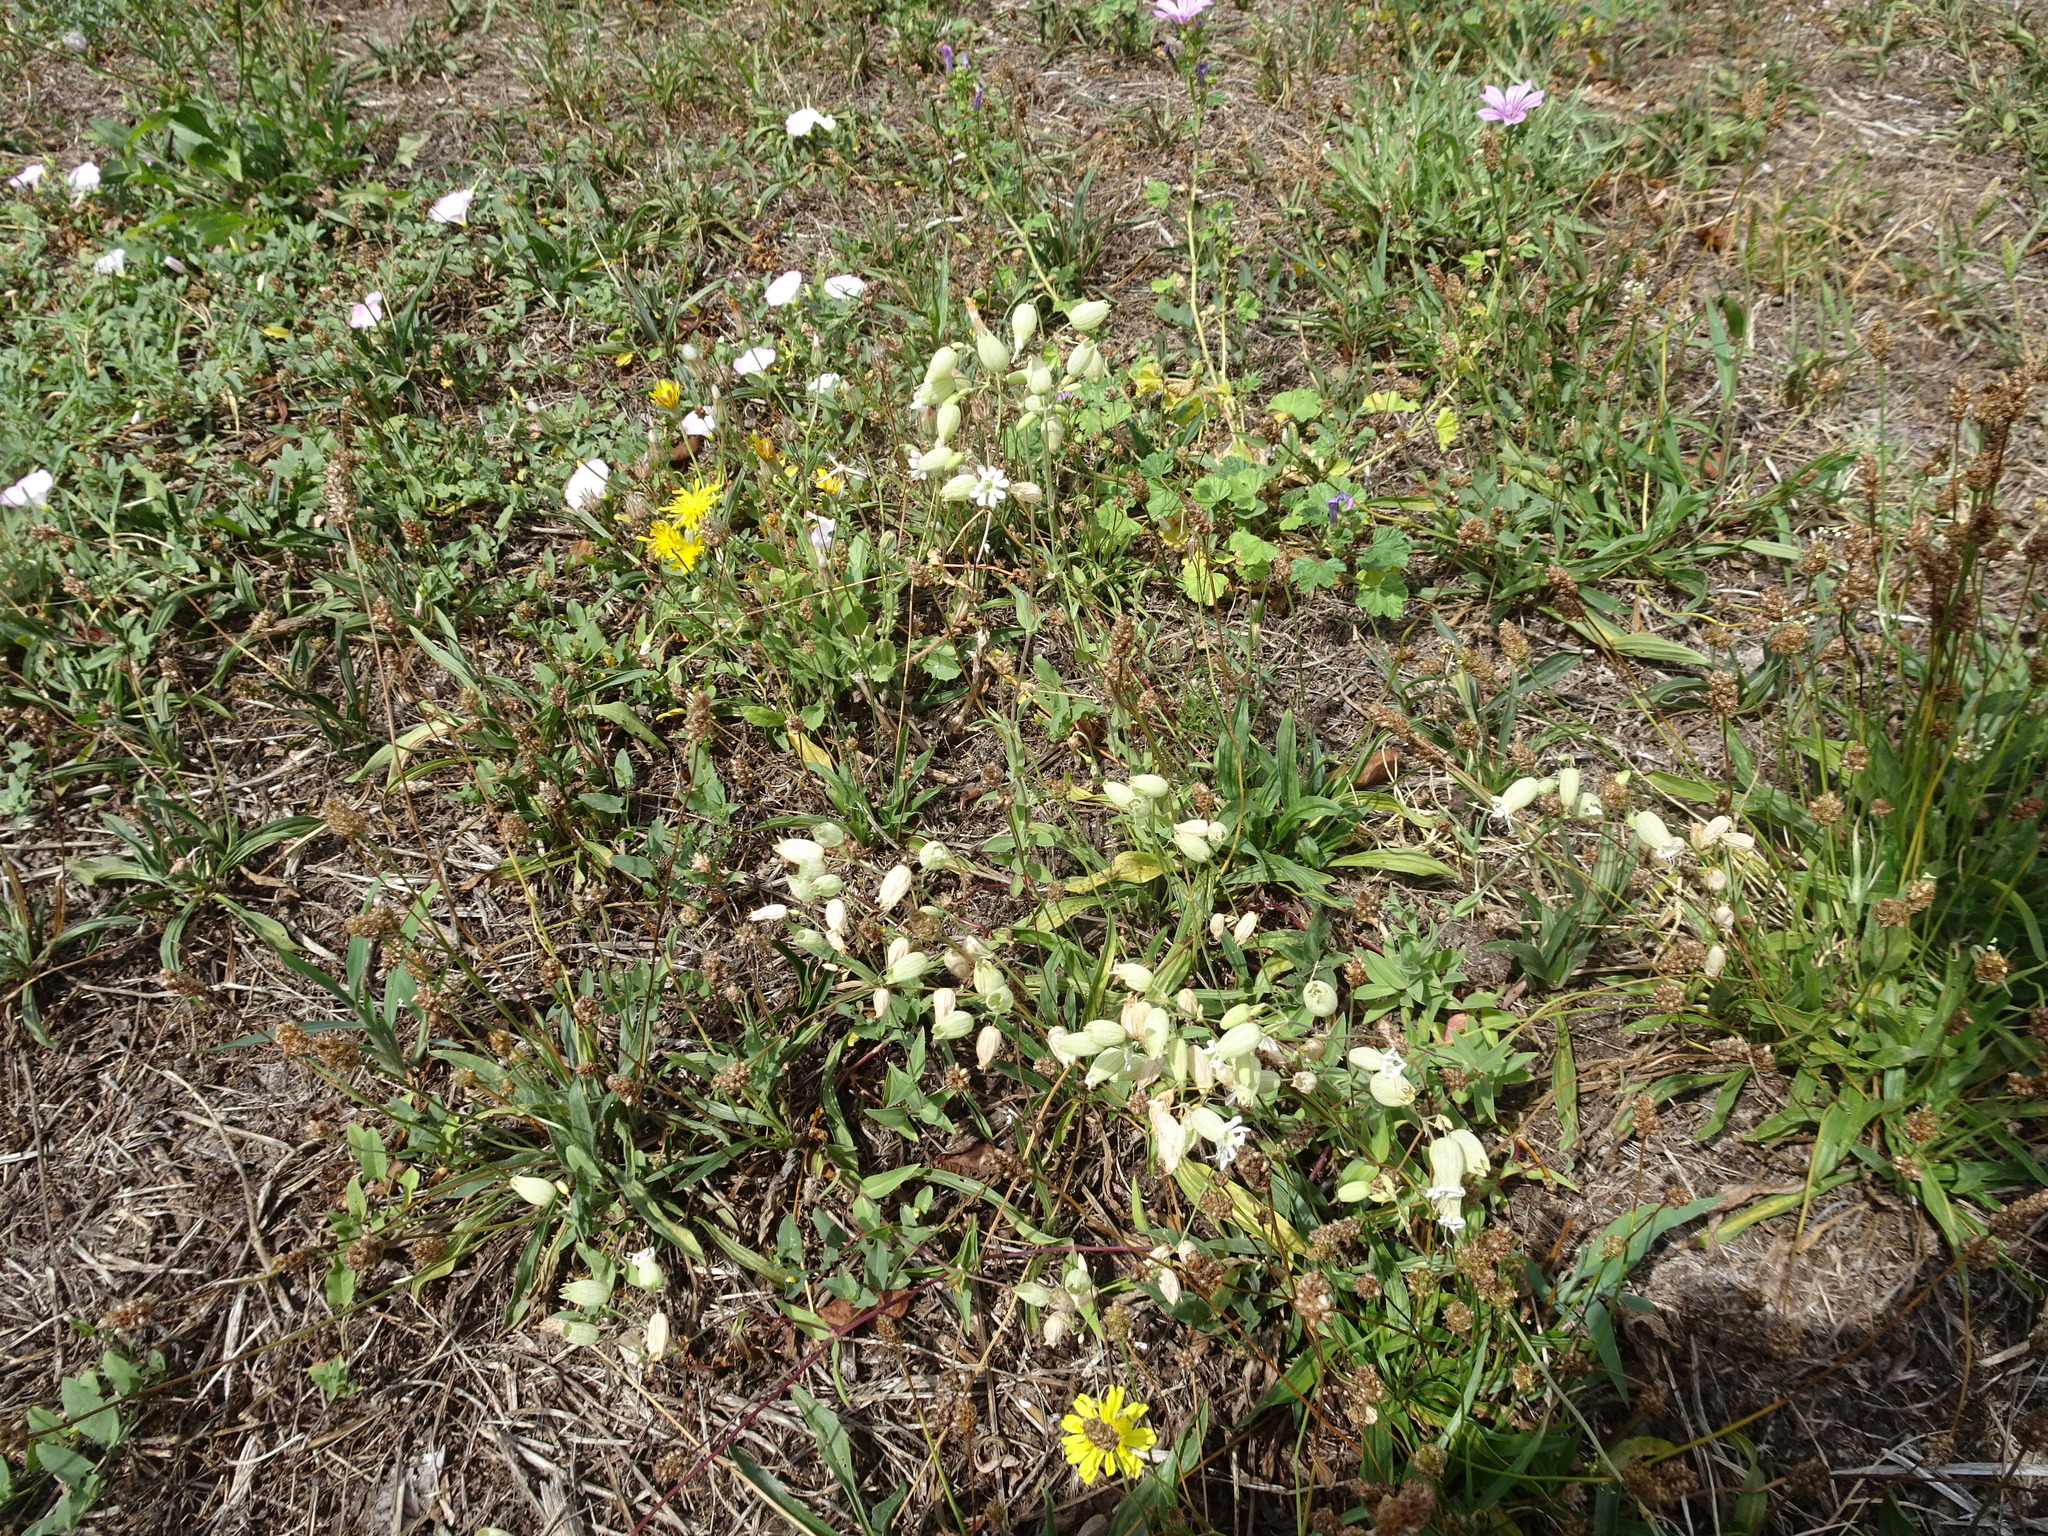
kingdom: Plantae
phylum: Tracheophyta
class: Magnoliopsida
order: Caryophyllales
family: Caryophyllaceae
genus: Silene
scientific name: Silene vulgaris
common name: Bladder campion
